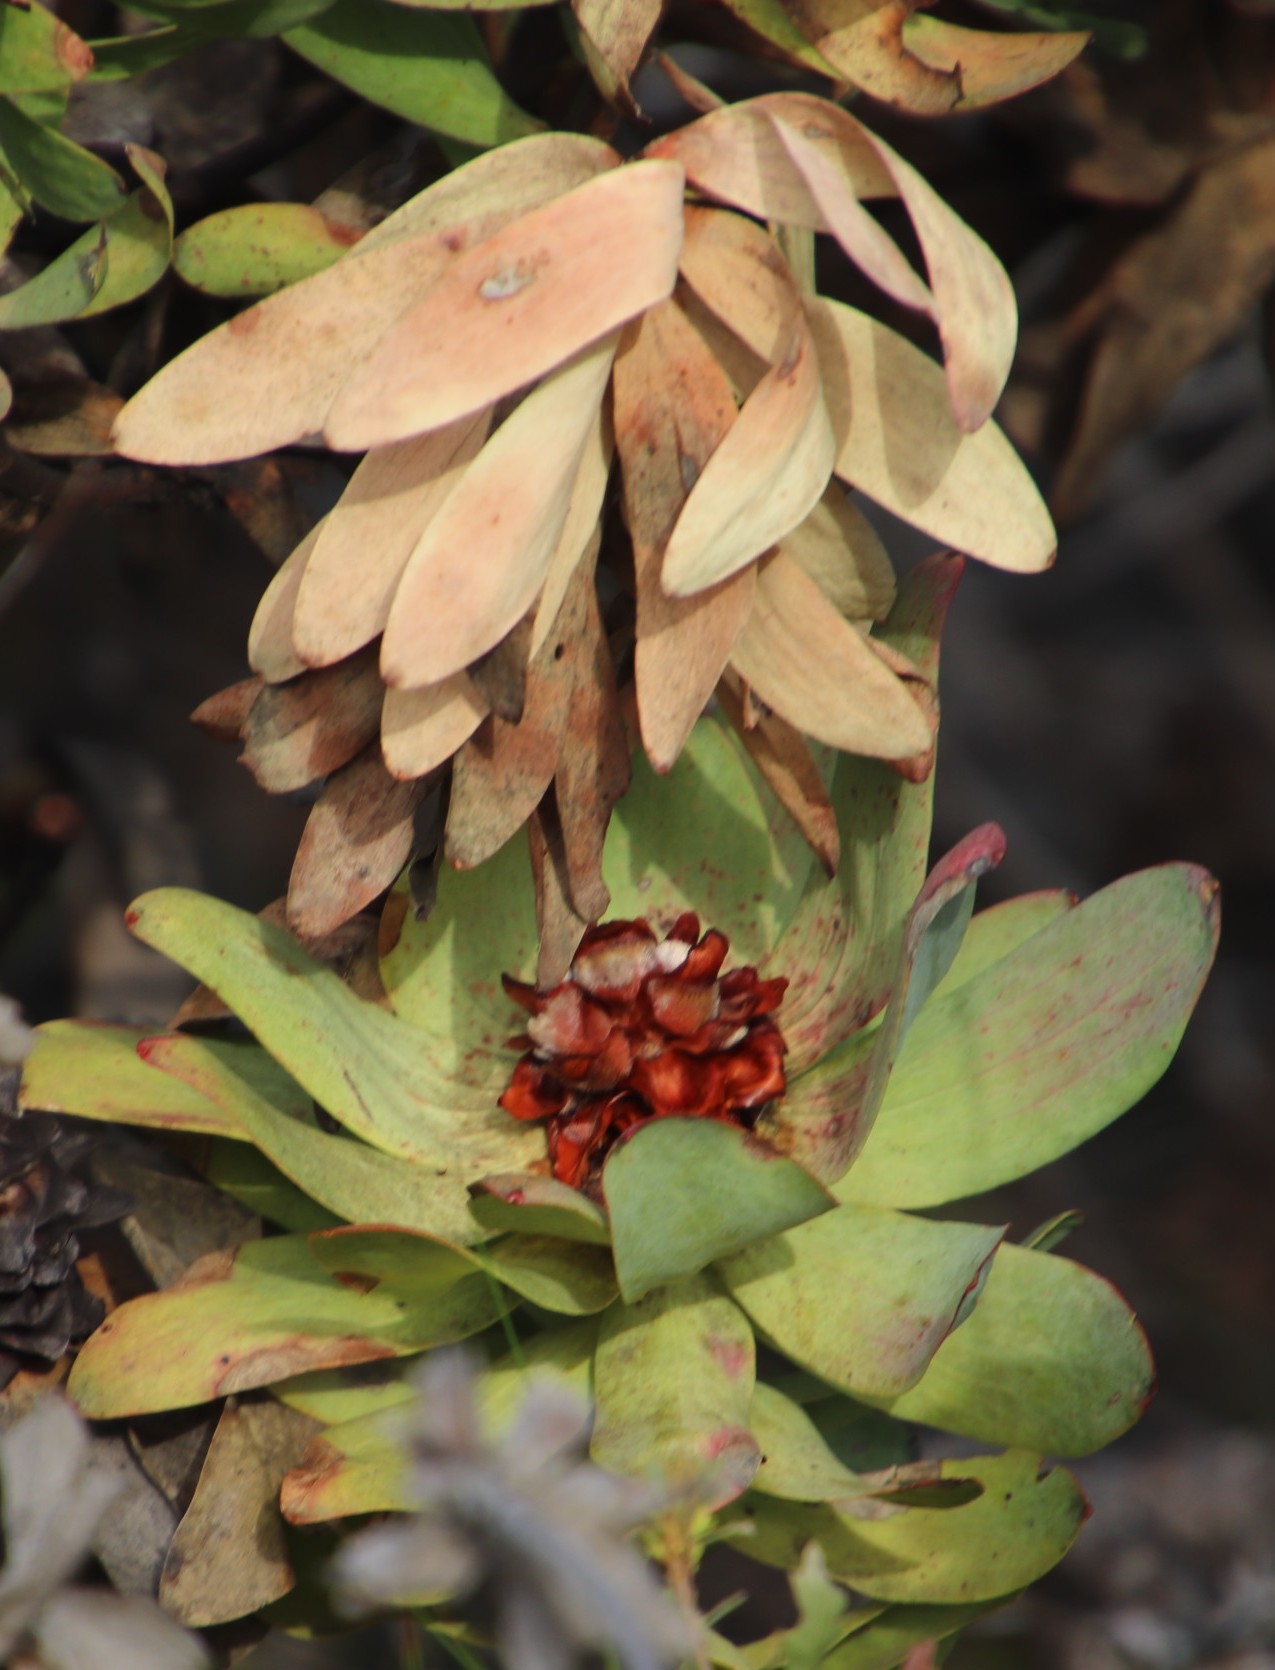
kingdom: Plantae
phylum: Tracheophyta
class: Magnoliopsida
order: Proteales
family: Proteaceae
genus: Leucadendron
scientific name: Leucadendron tinctum
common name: Spicy conebush
